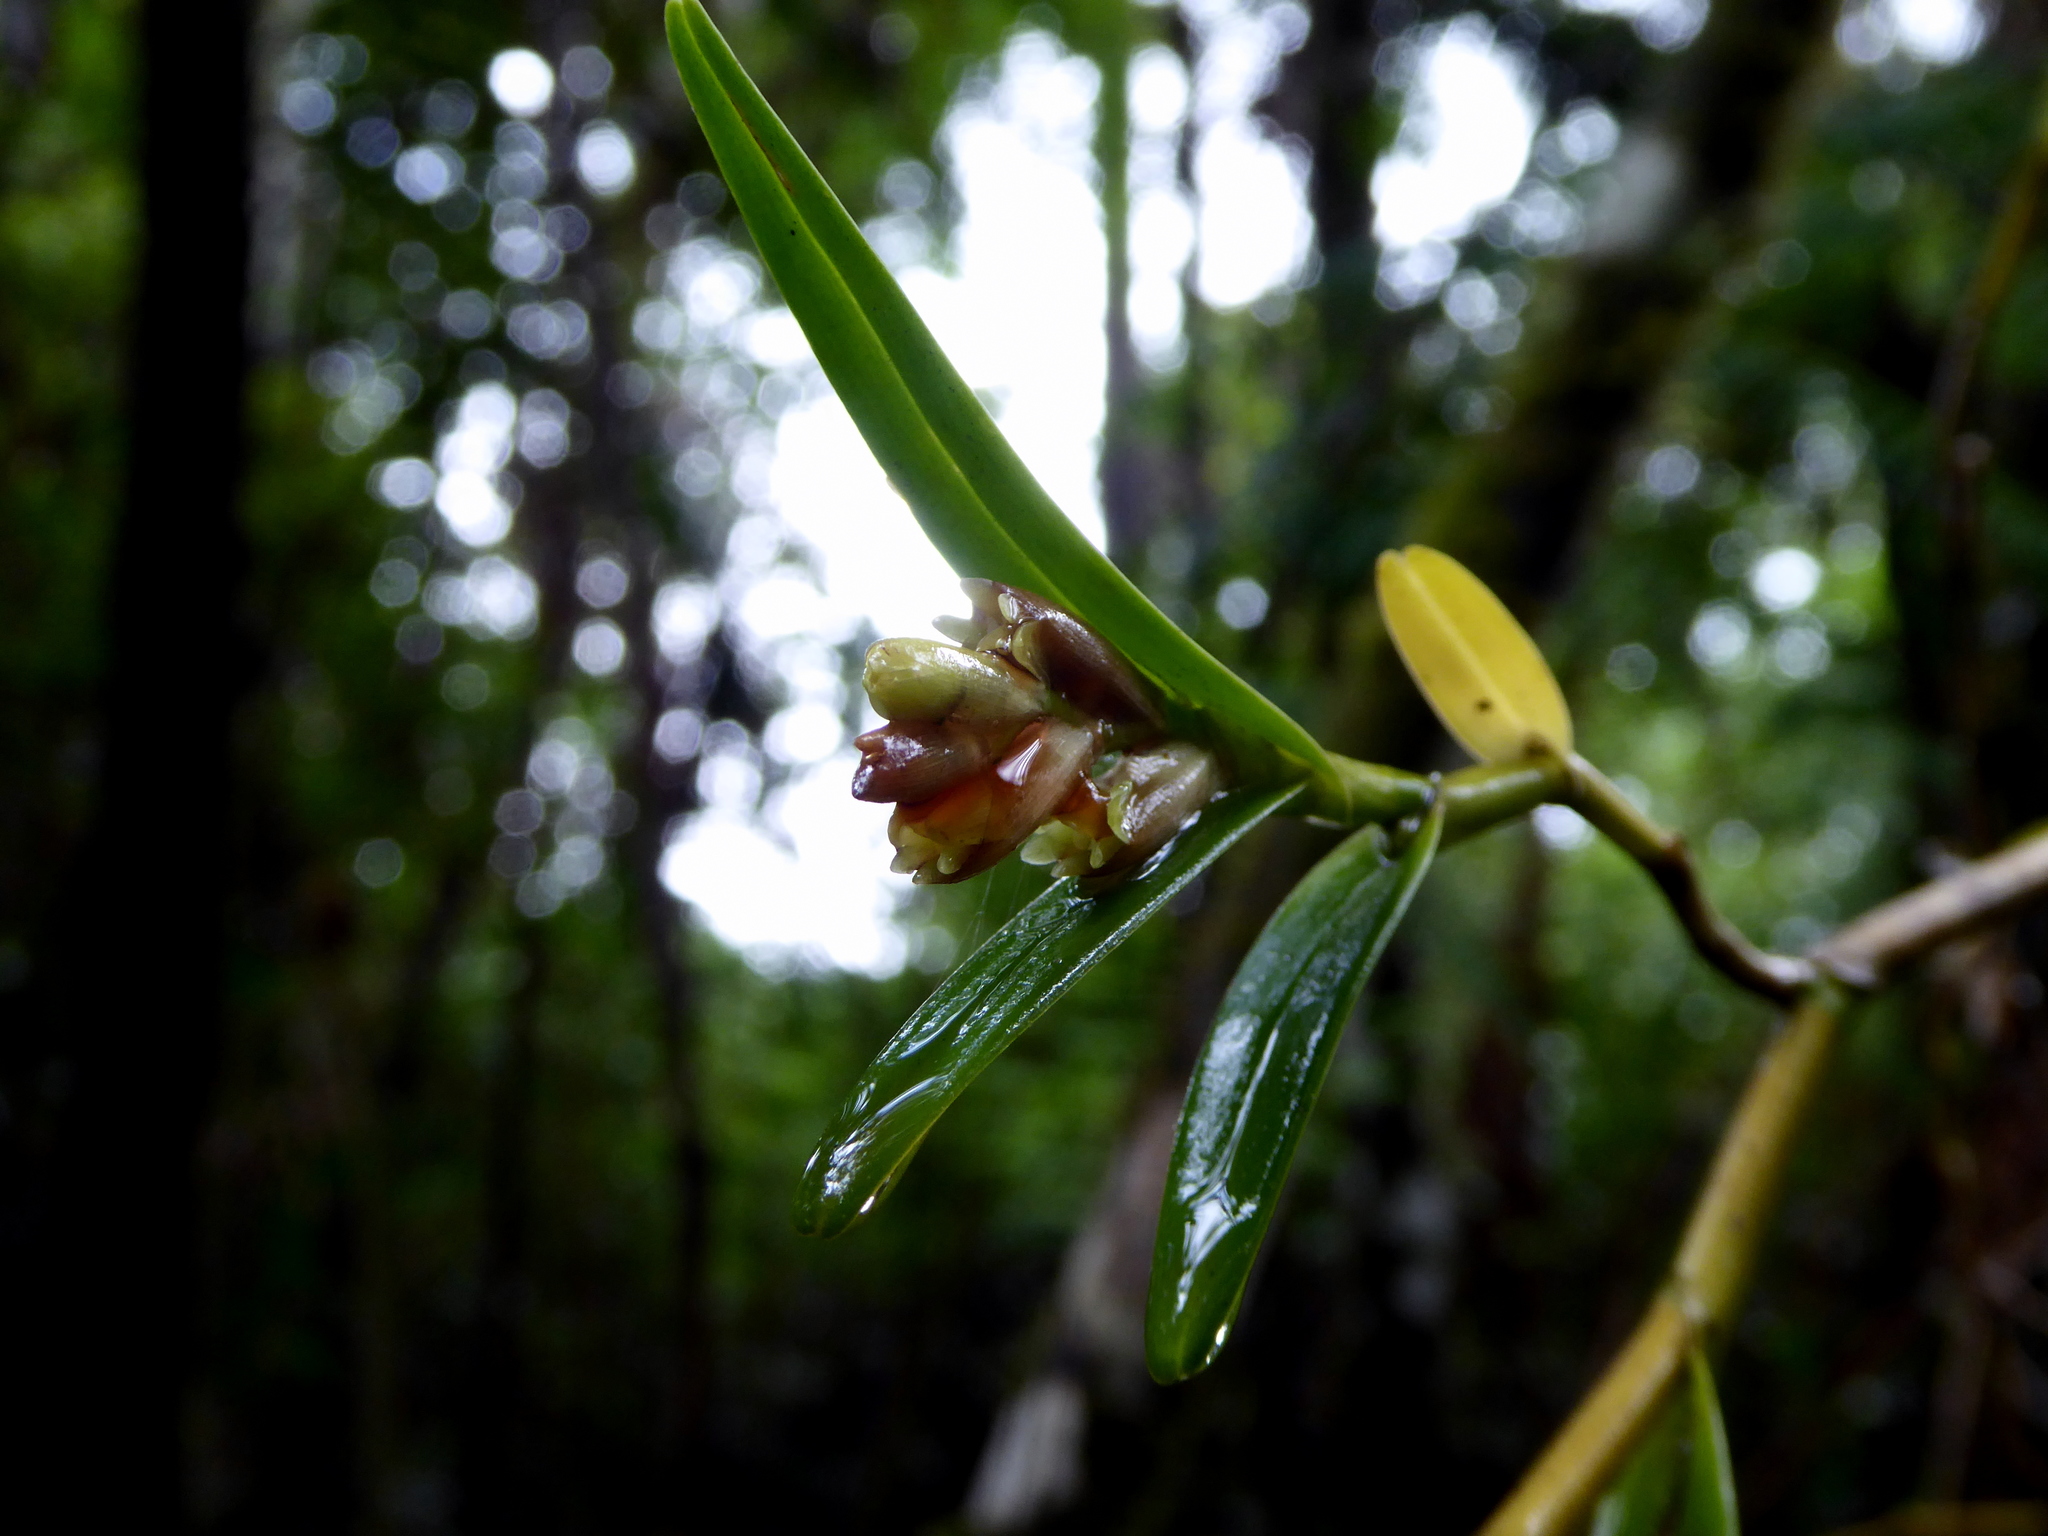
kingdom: Plantae
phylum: Tracheophyta
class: Liliopsida
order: Asparagales
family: Orchidaceae
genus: Epidendrum
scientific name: Epidendrum pseudoramosum
